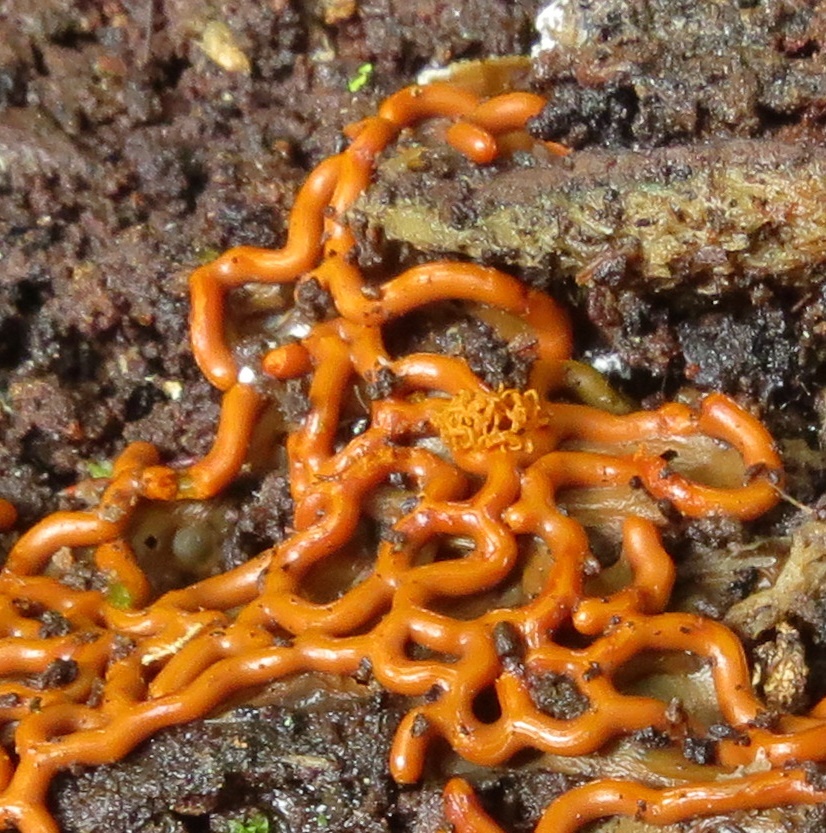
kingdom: Protozoa
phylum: Mycetozoa
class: Myxomycetes
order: Trichiales
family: Arcyriaceae
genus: Hemitrichia
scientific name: Hemitrichia serpula
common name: Pretzel slime mold
